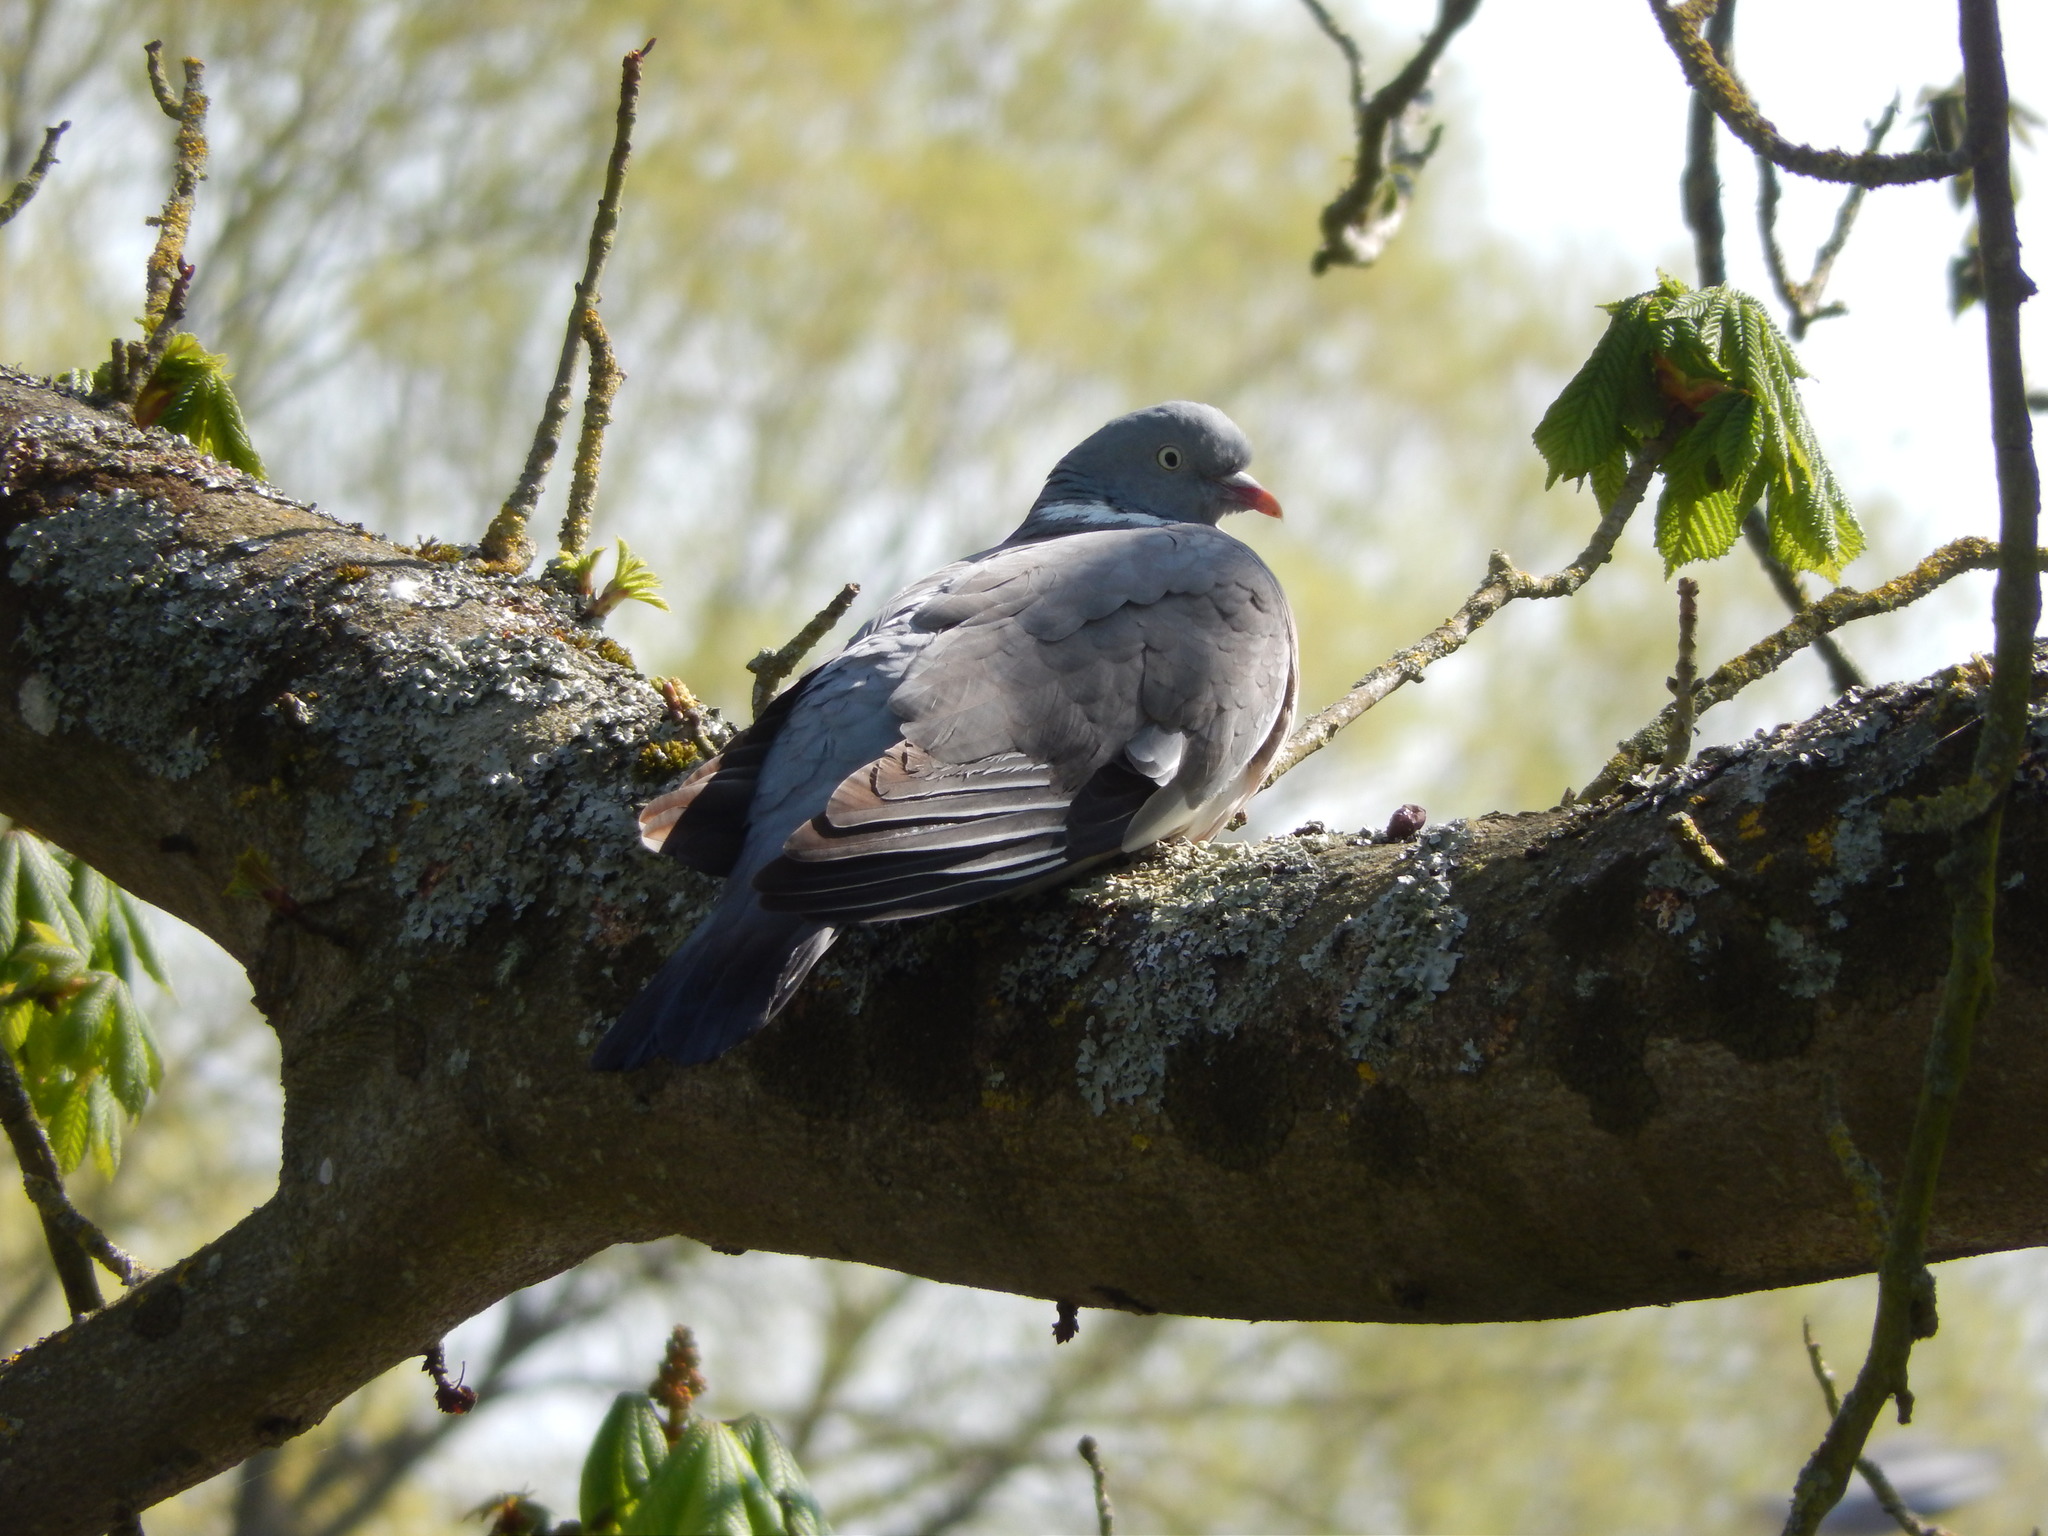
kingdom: Animalia
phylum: Chordata
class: Aves
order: Columbiformes
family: Columbidae
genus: Columba
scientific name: Columba palumbus
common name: Common wood pigeon
